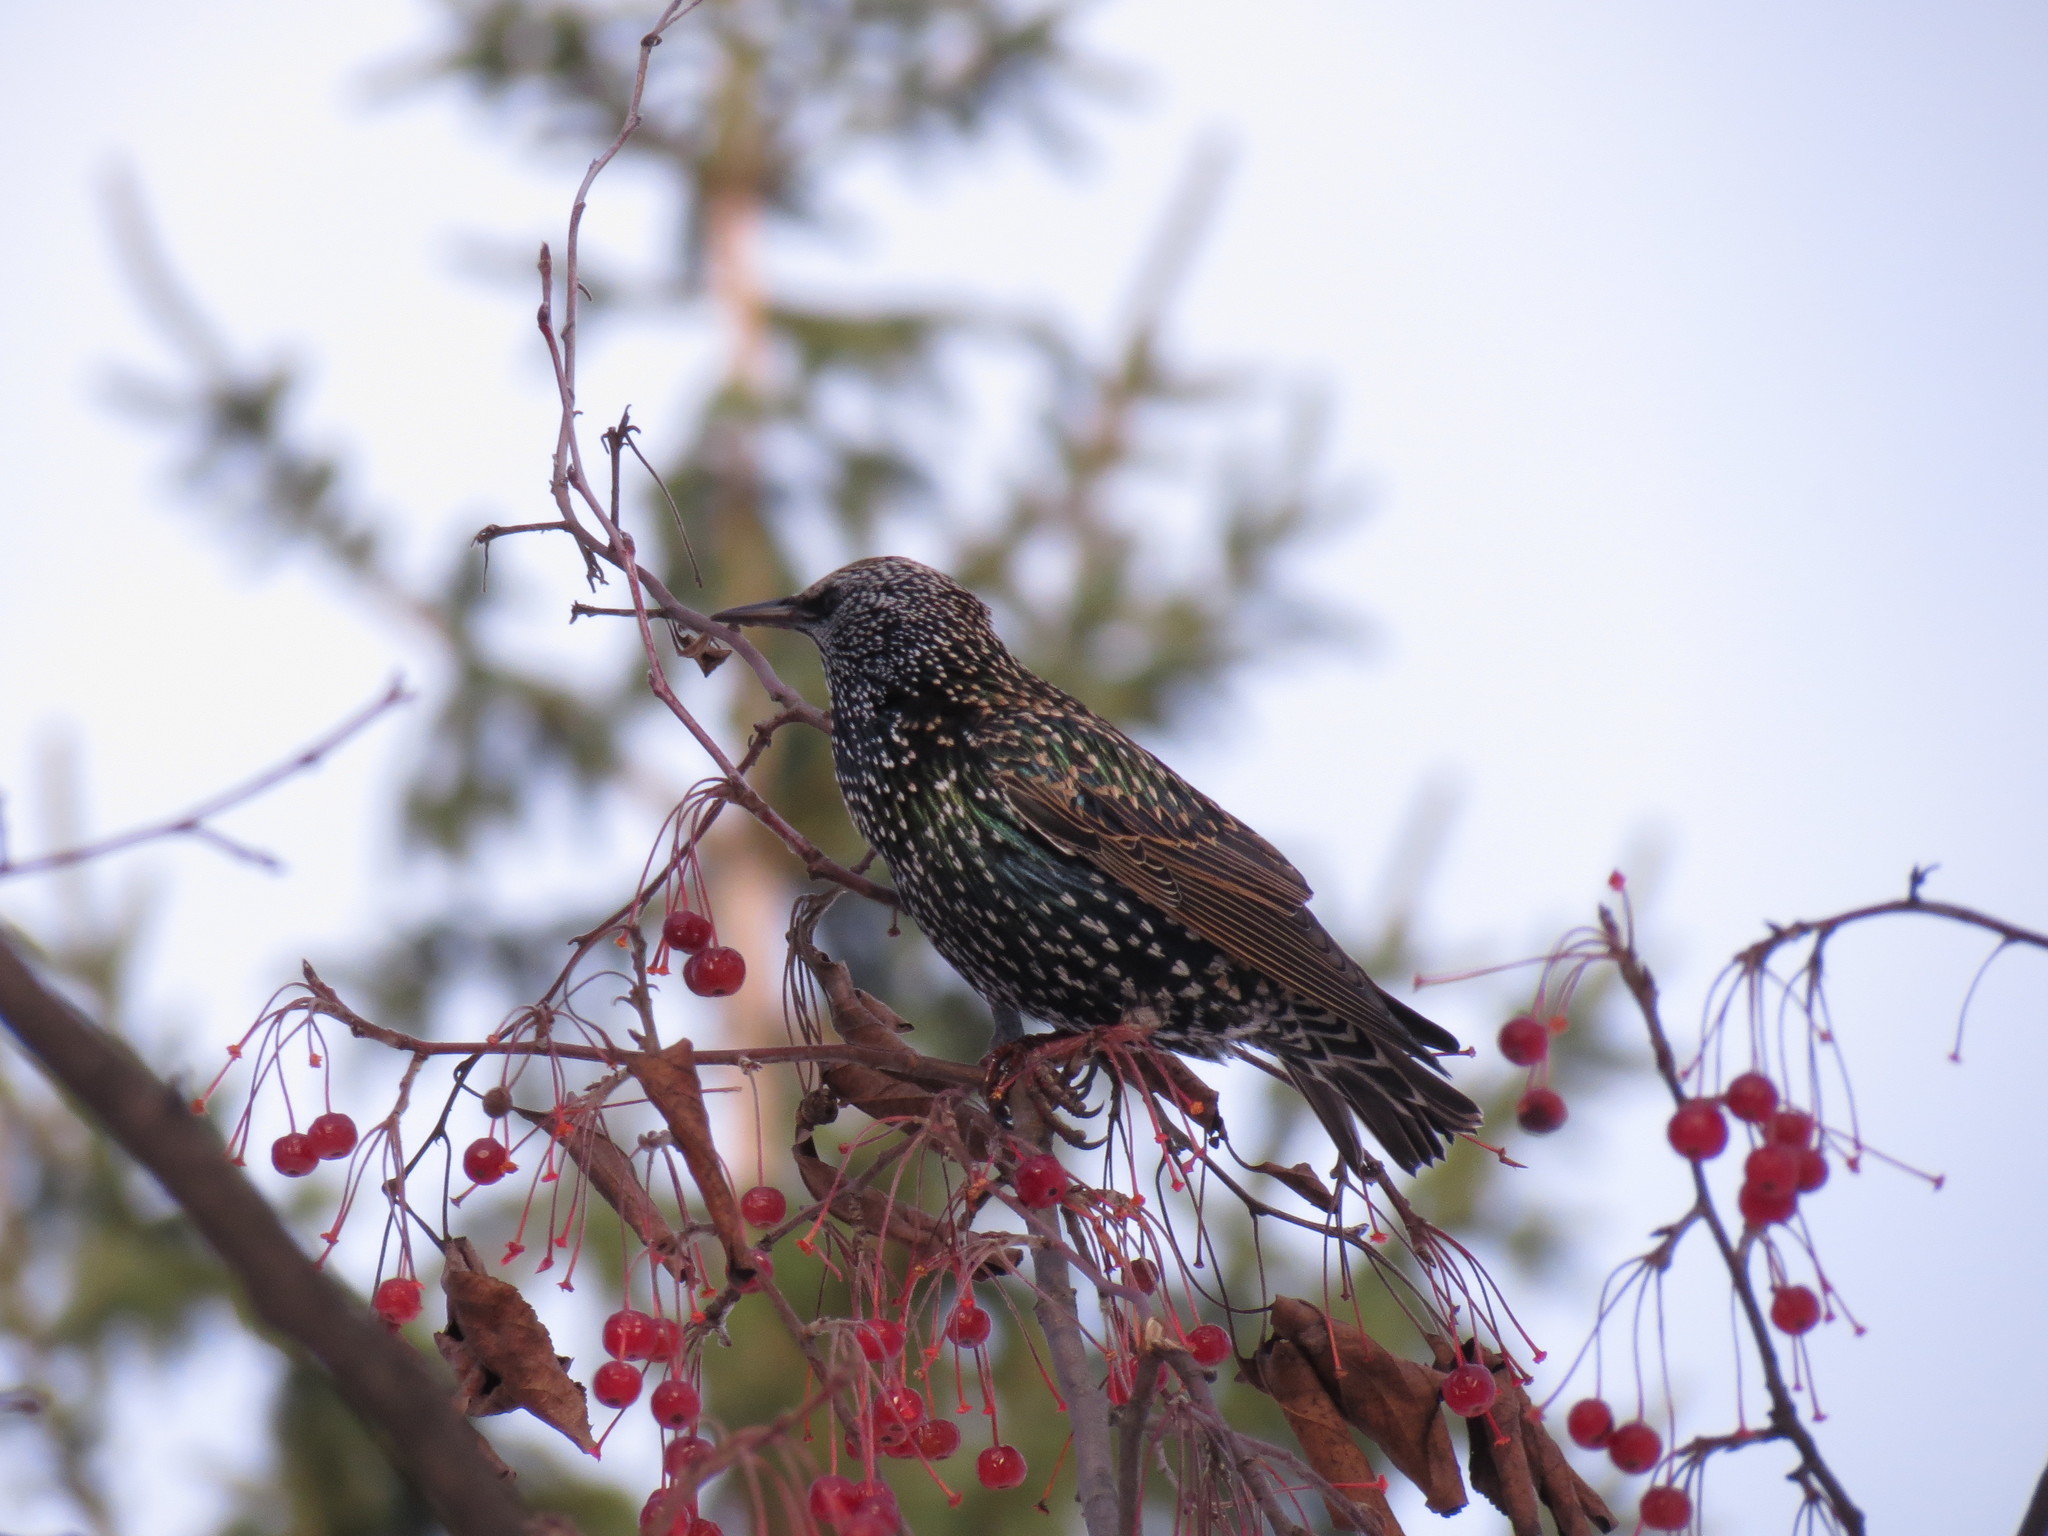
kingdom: Animalia
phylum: Chordata
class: Aves
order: Passeriformes
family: Sturnidae
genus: Sturnus
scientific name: Sturnus vulgaris
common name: Common starling
